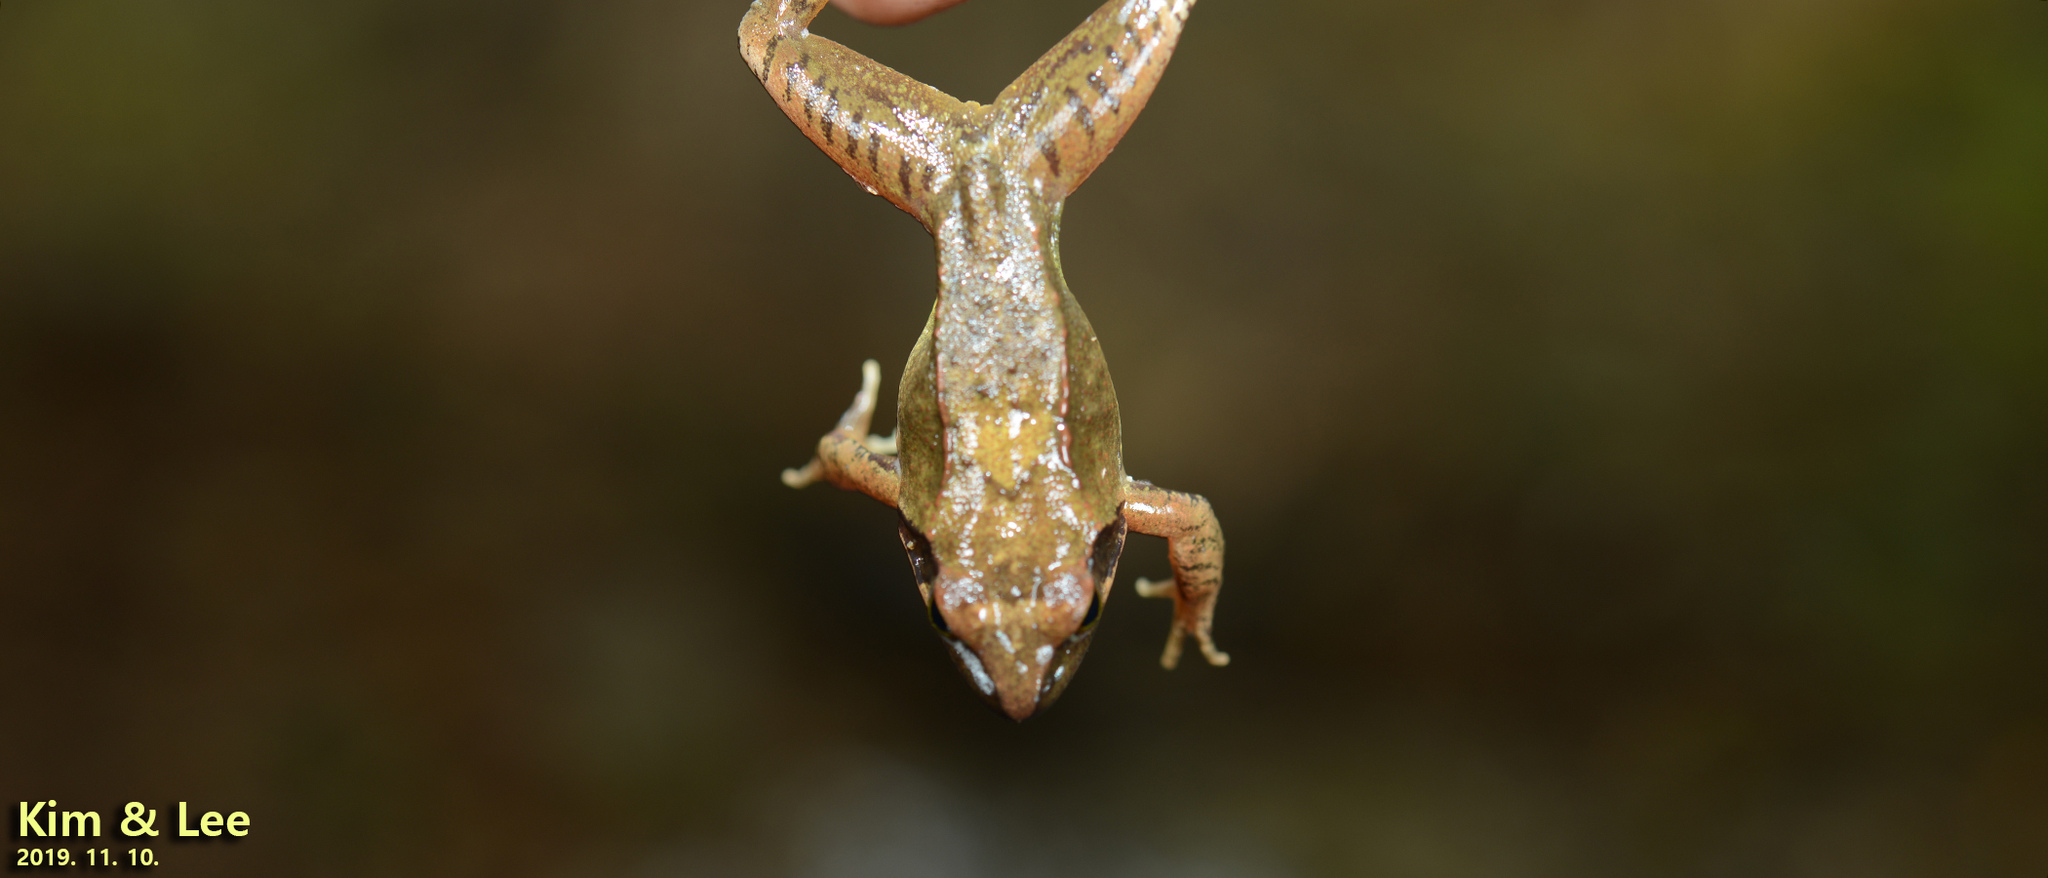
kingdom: Animalia
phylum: Chordata
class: Amphibia
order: Anura
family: Ranidae
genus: Rana
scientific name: Rana uenoi
